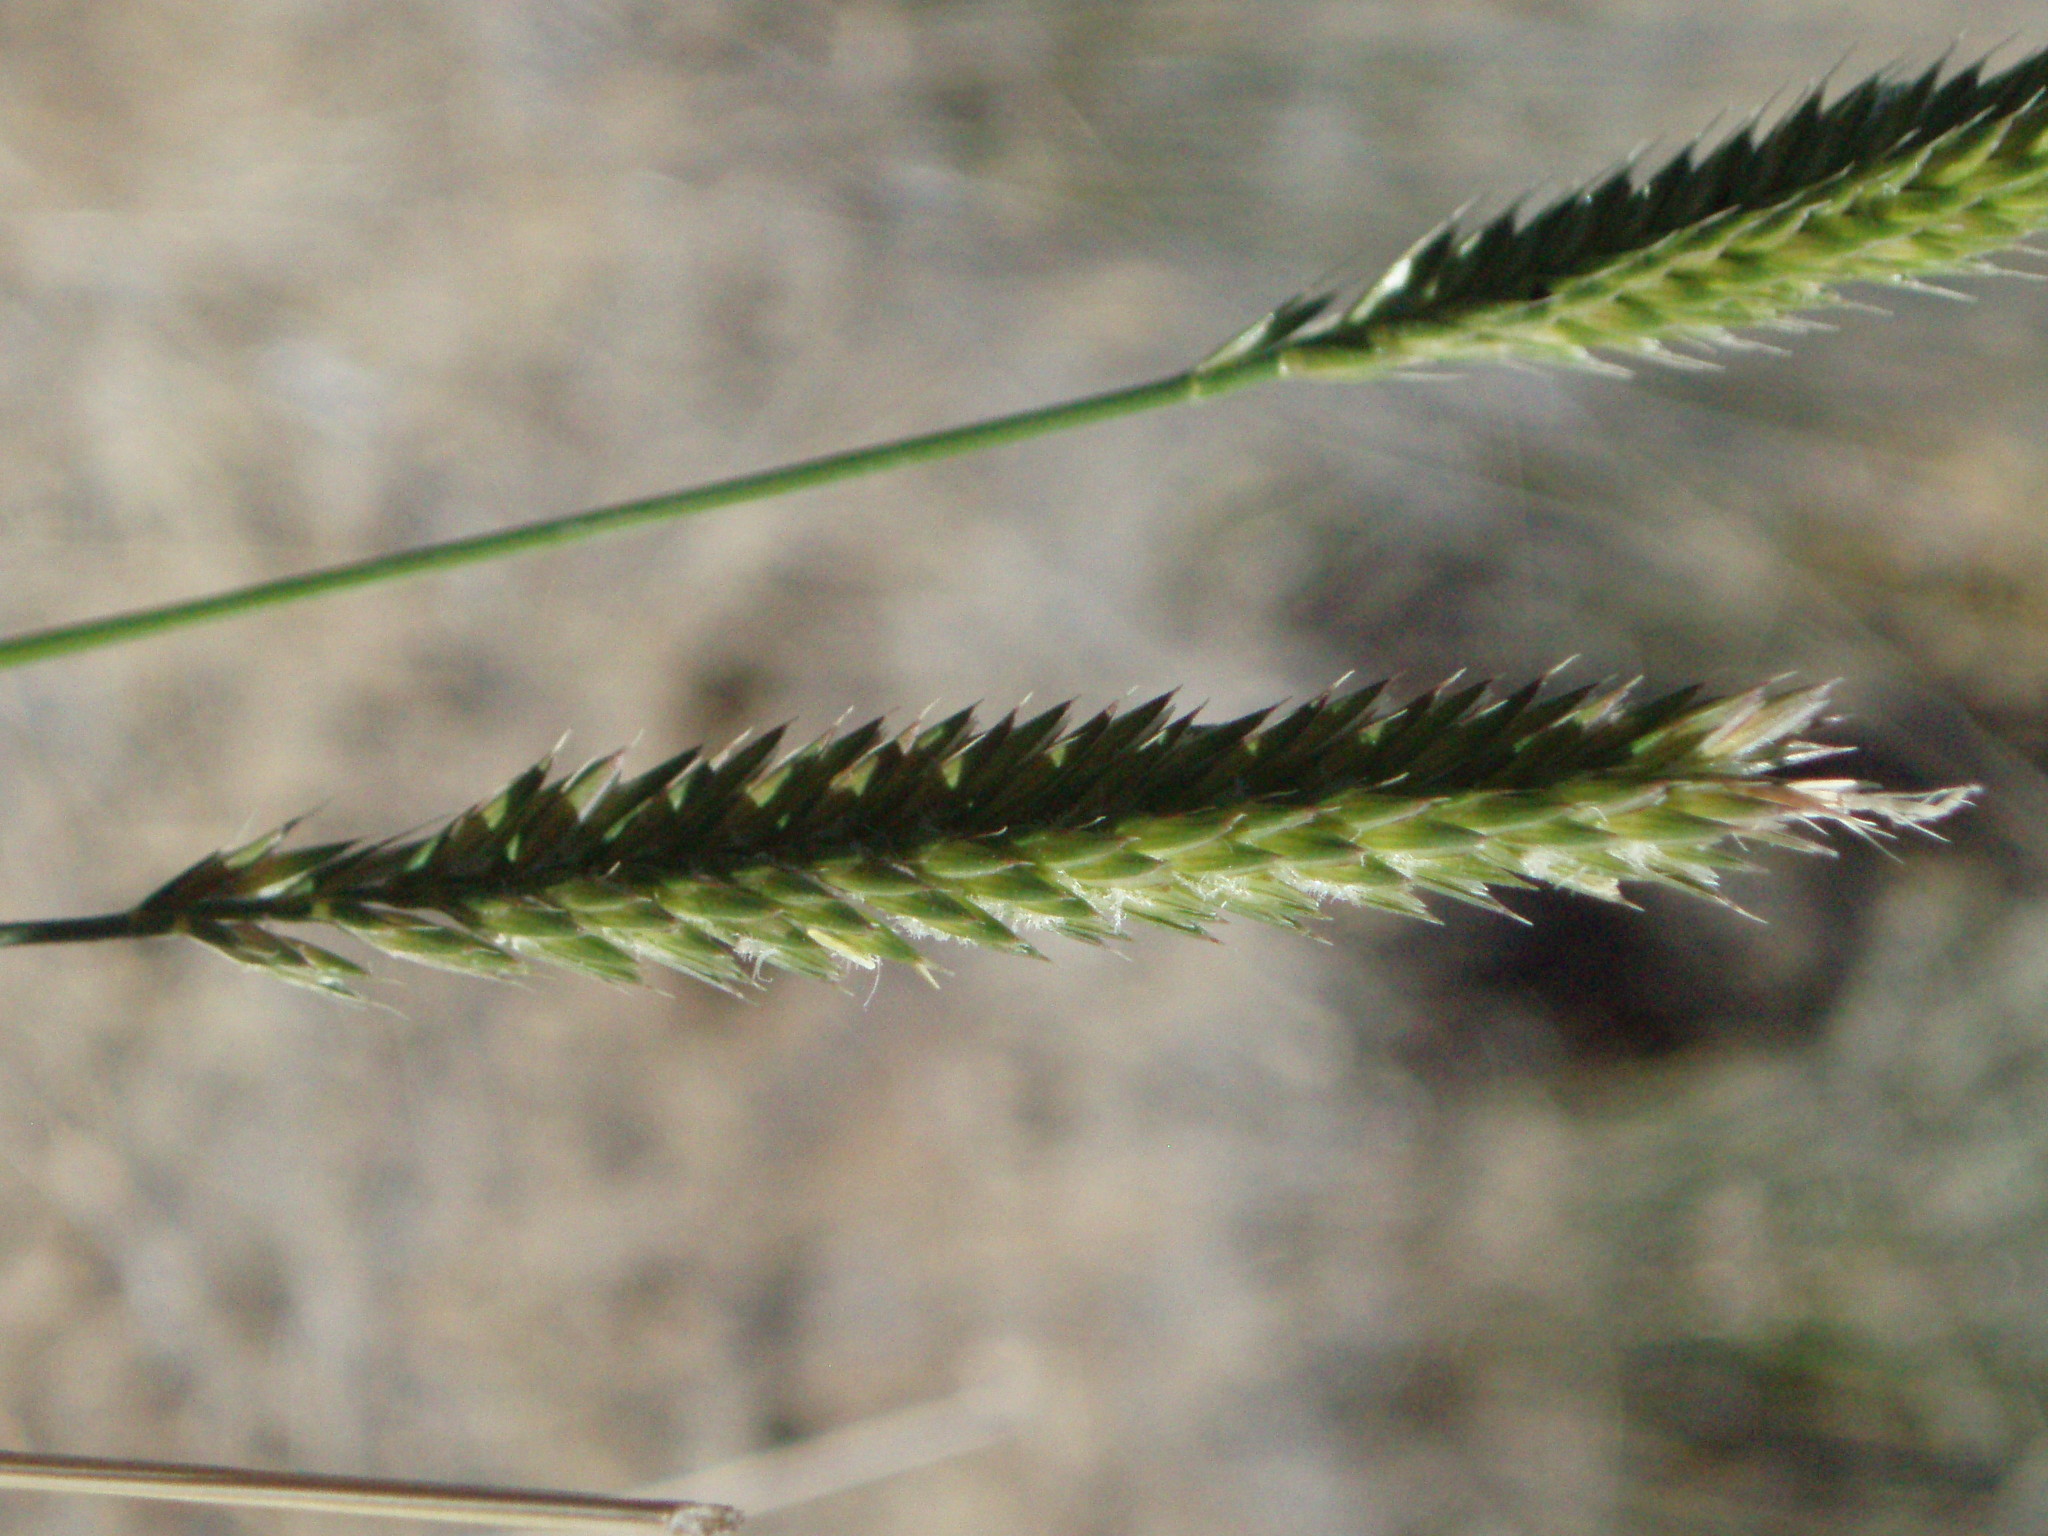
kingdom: Plantae
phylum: Tracheophyta
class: Liliopsida
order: Poales
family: Poaceae
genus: Agropyron
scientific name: Agropyron cristatum
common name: Crested wheatgrass
